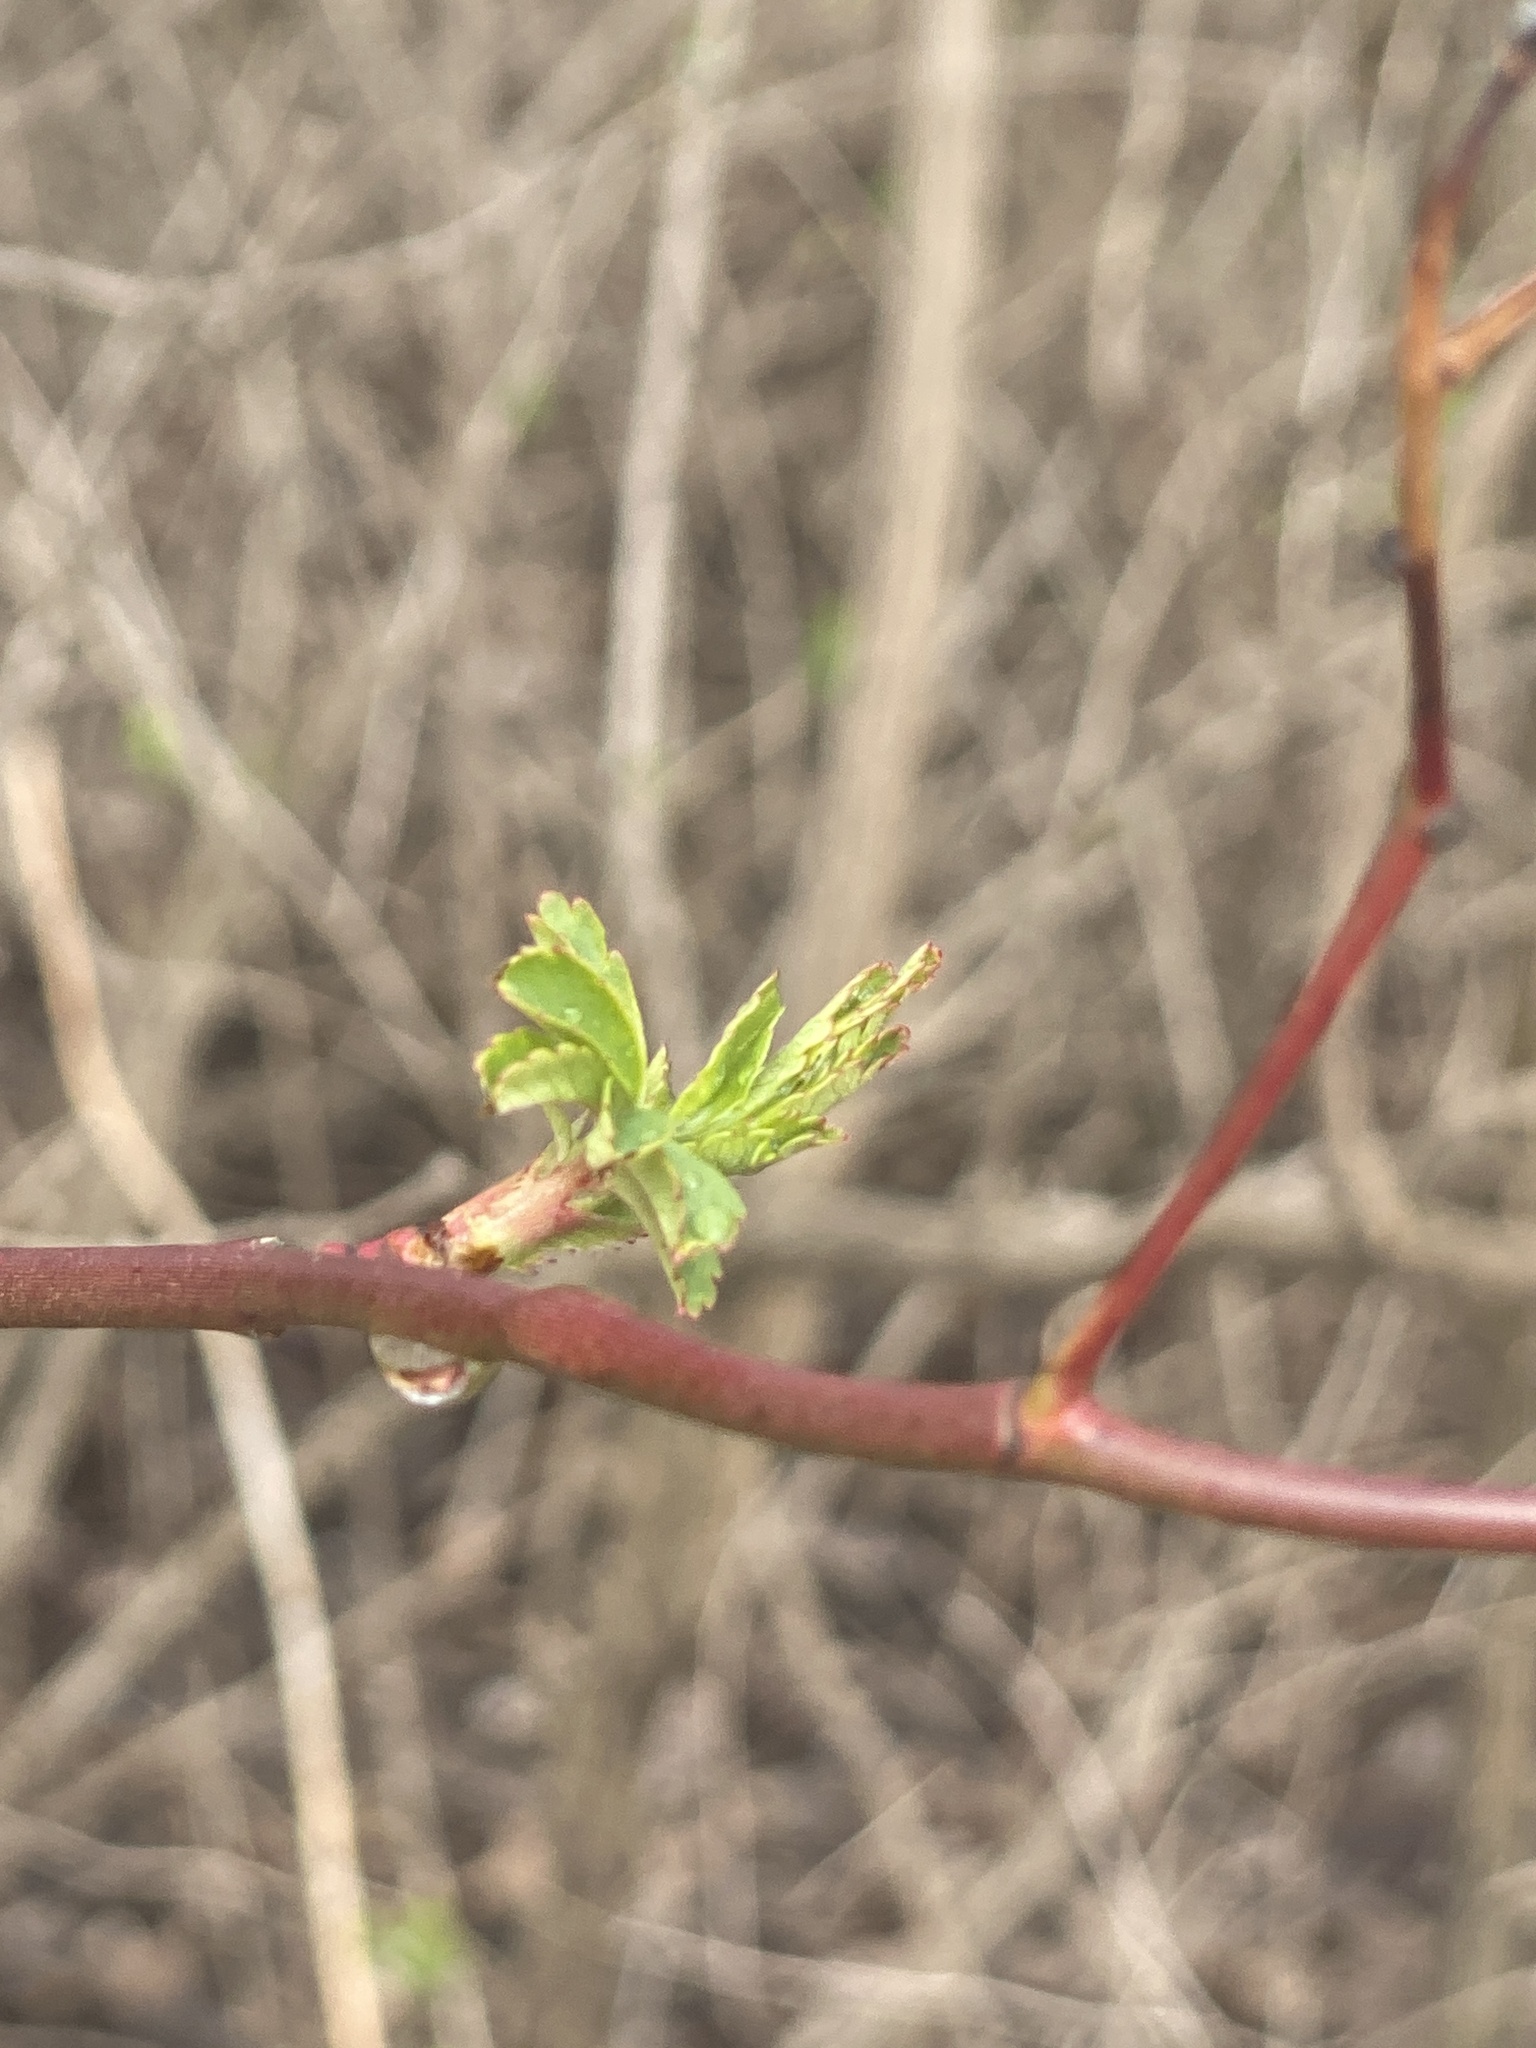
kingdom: Plantae
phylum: Tracheophyta
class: Magnoliopsida
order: Rosales
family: Rosaceae
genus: Rosa
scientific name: Rosa multiflora
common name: Multiflora rose
